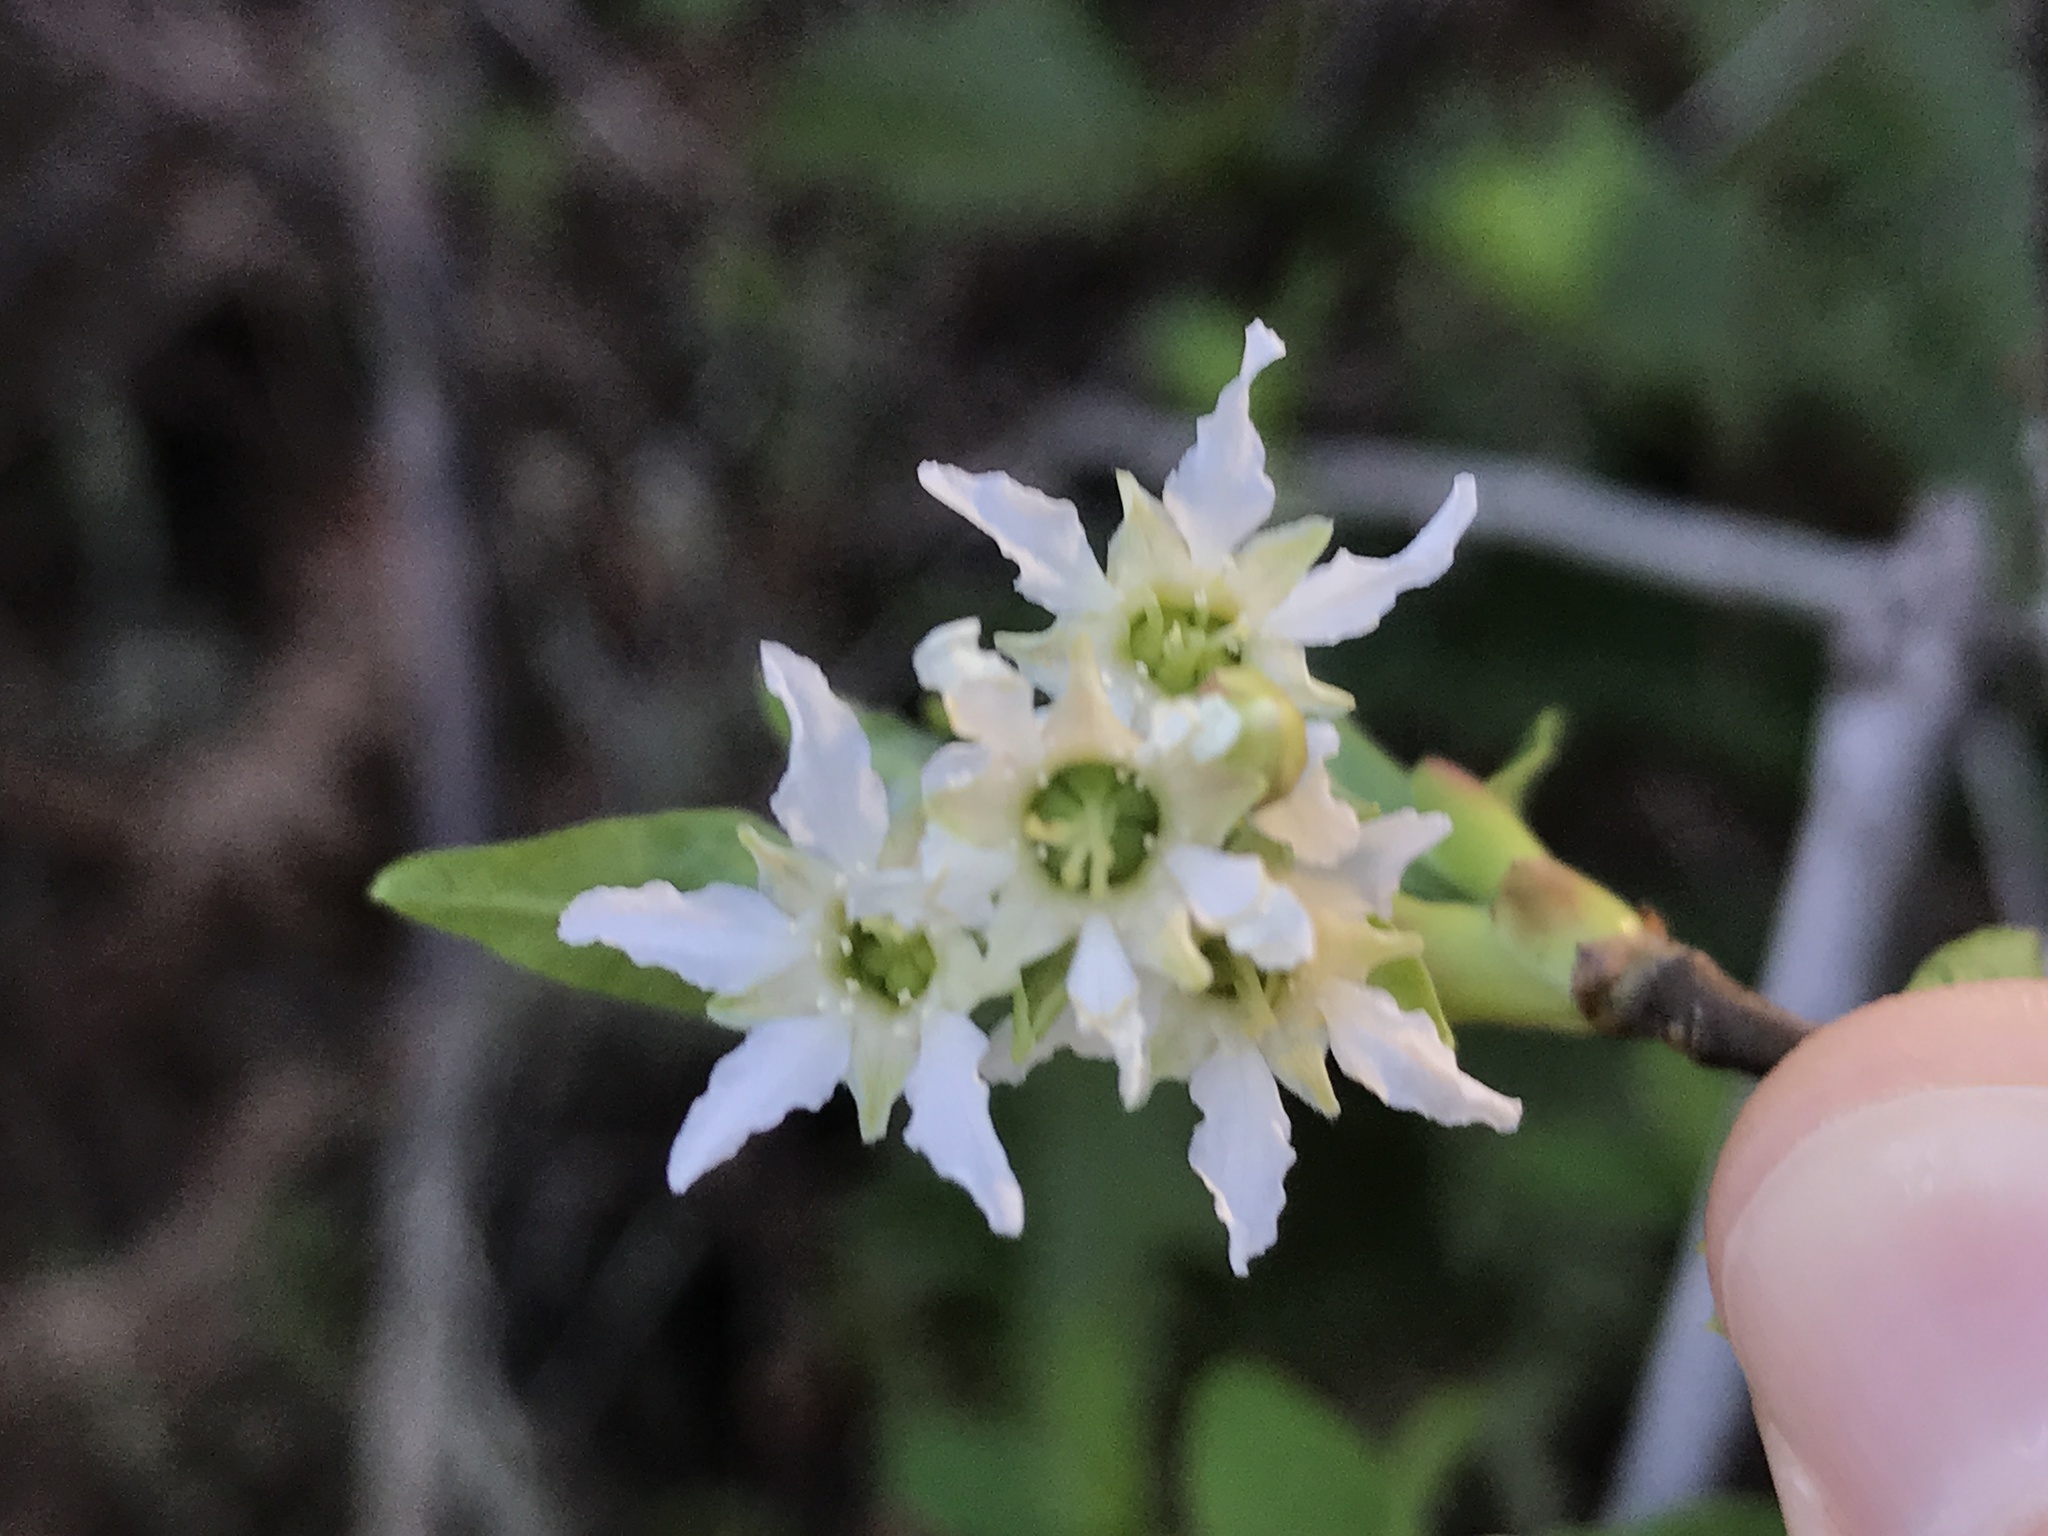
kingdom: Plantae
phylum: Tracheophyta
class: Magnoliopsida
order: Rosales
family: Rosaceae
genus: Oemleria
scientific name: Oemleria cerasiformis
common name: Osoberry
